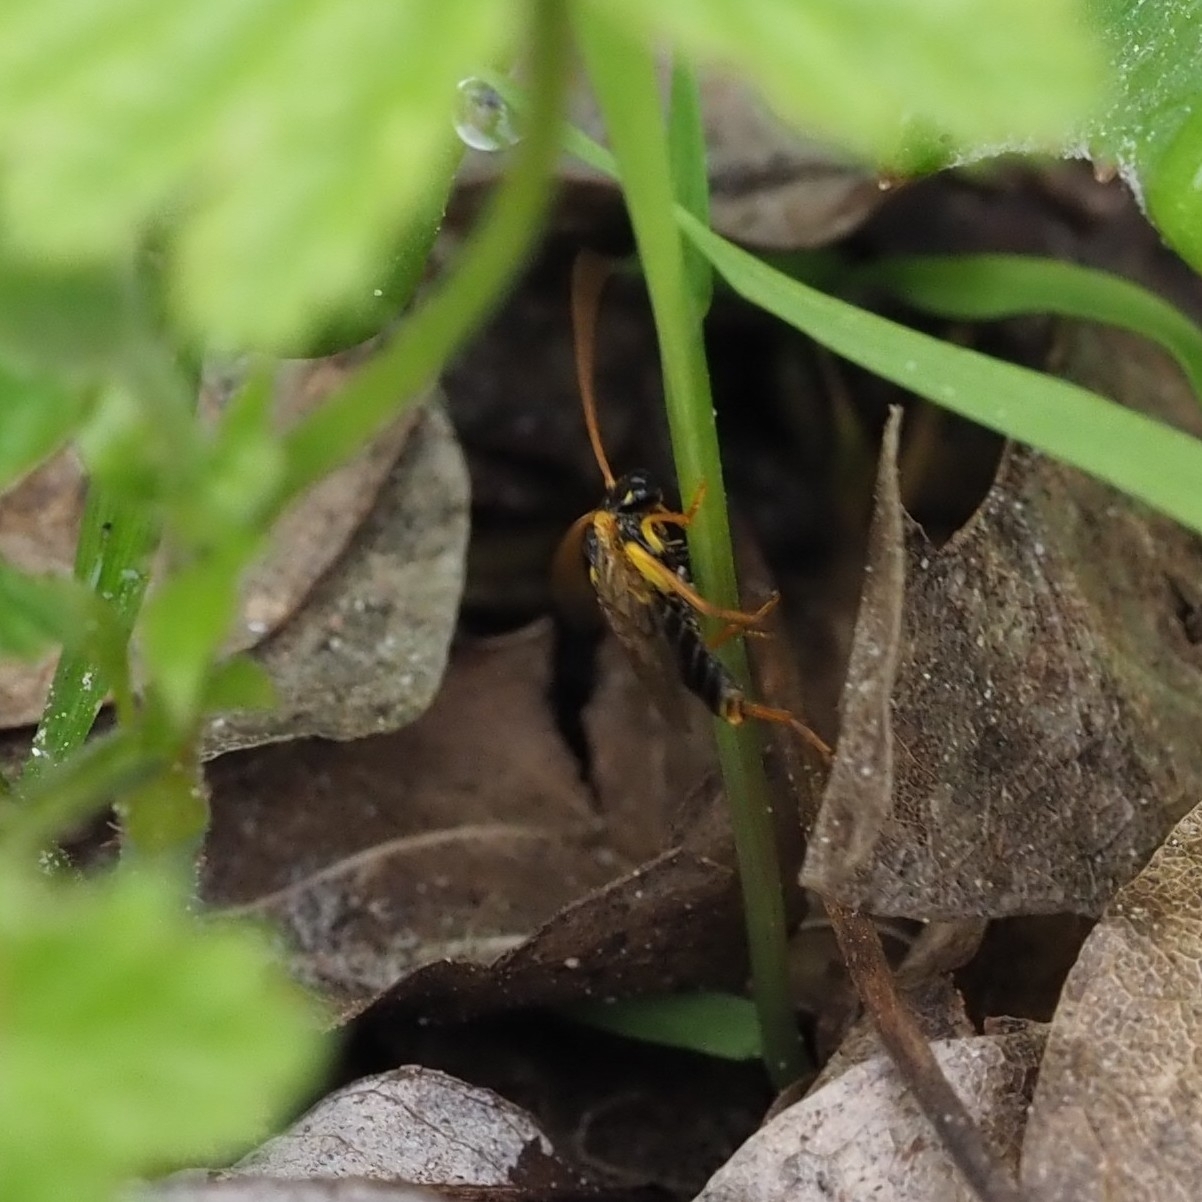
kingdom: Animalia
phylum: Arthropoda
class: Insecta
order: Hymenoptera
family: Pamphiliidae
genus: Pamphilius
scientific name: Pamphilius sylvaticus
